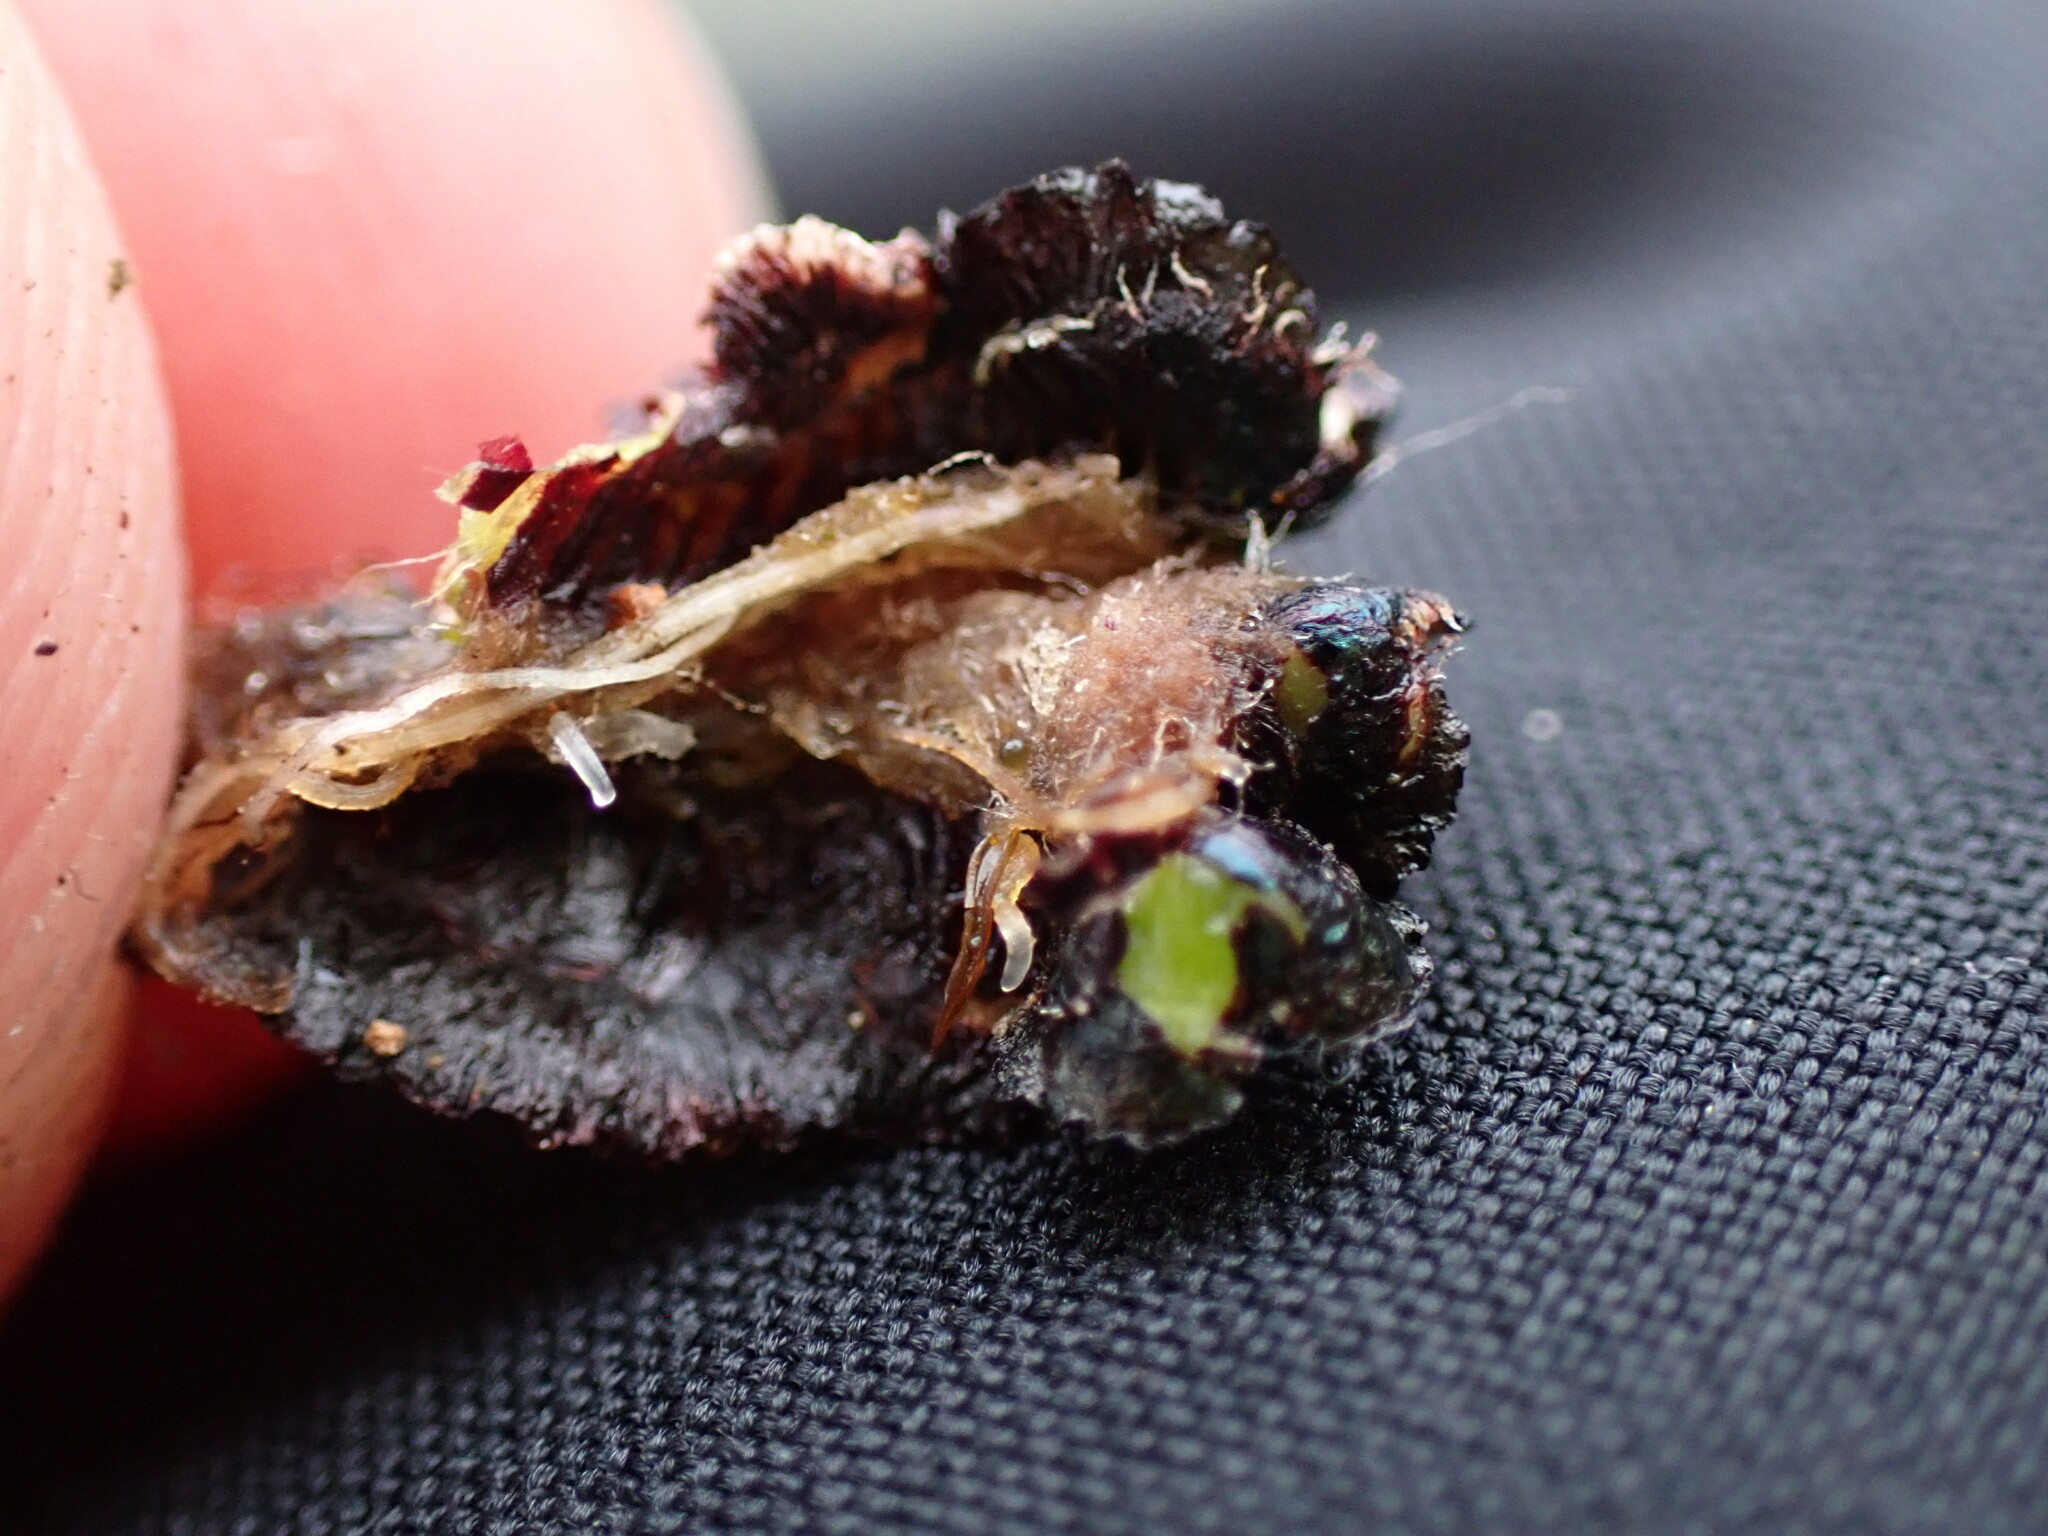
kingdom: Plantae
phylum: Marchantiophyta
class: Marchantiopsida
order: Marchantiales
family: Aytoniaceae
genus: Reboulia
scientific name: Reboulia hemisphaerica
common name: Purple-margined liverwort
